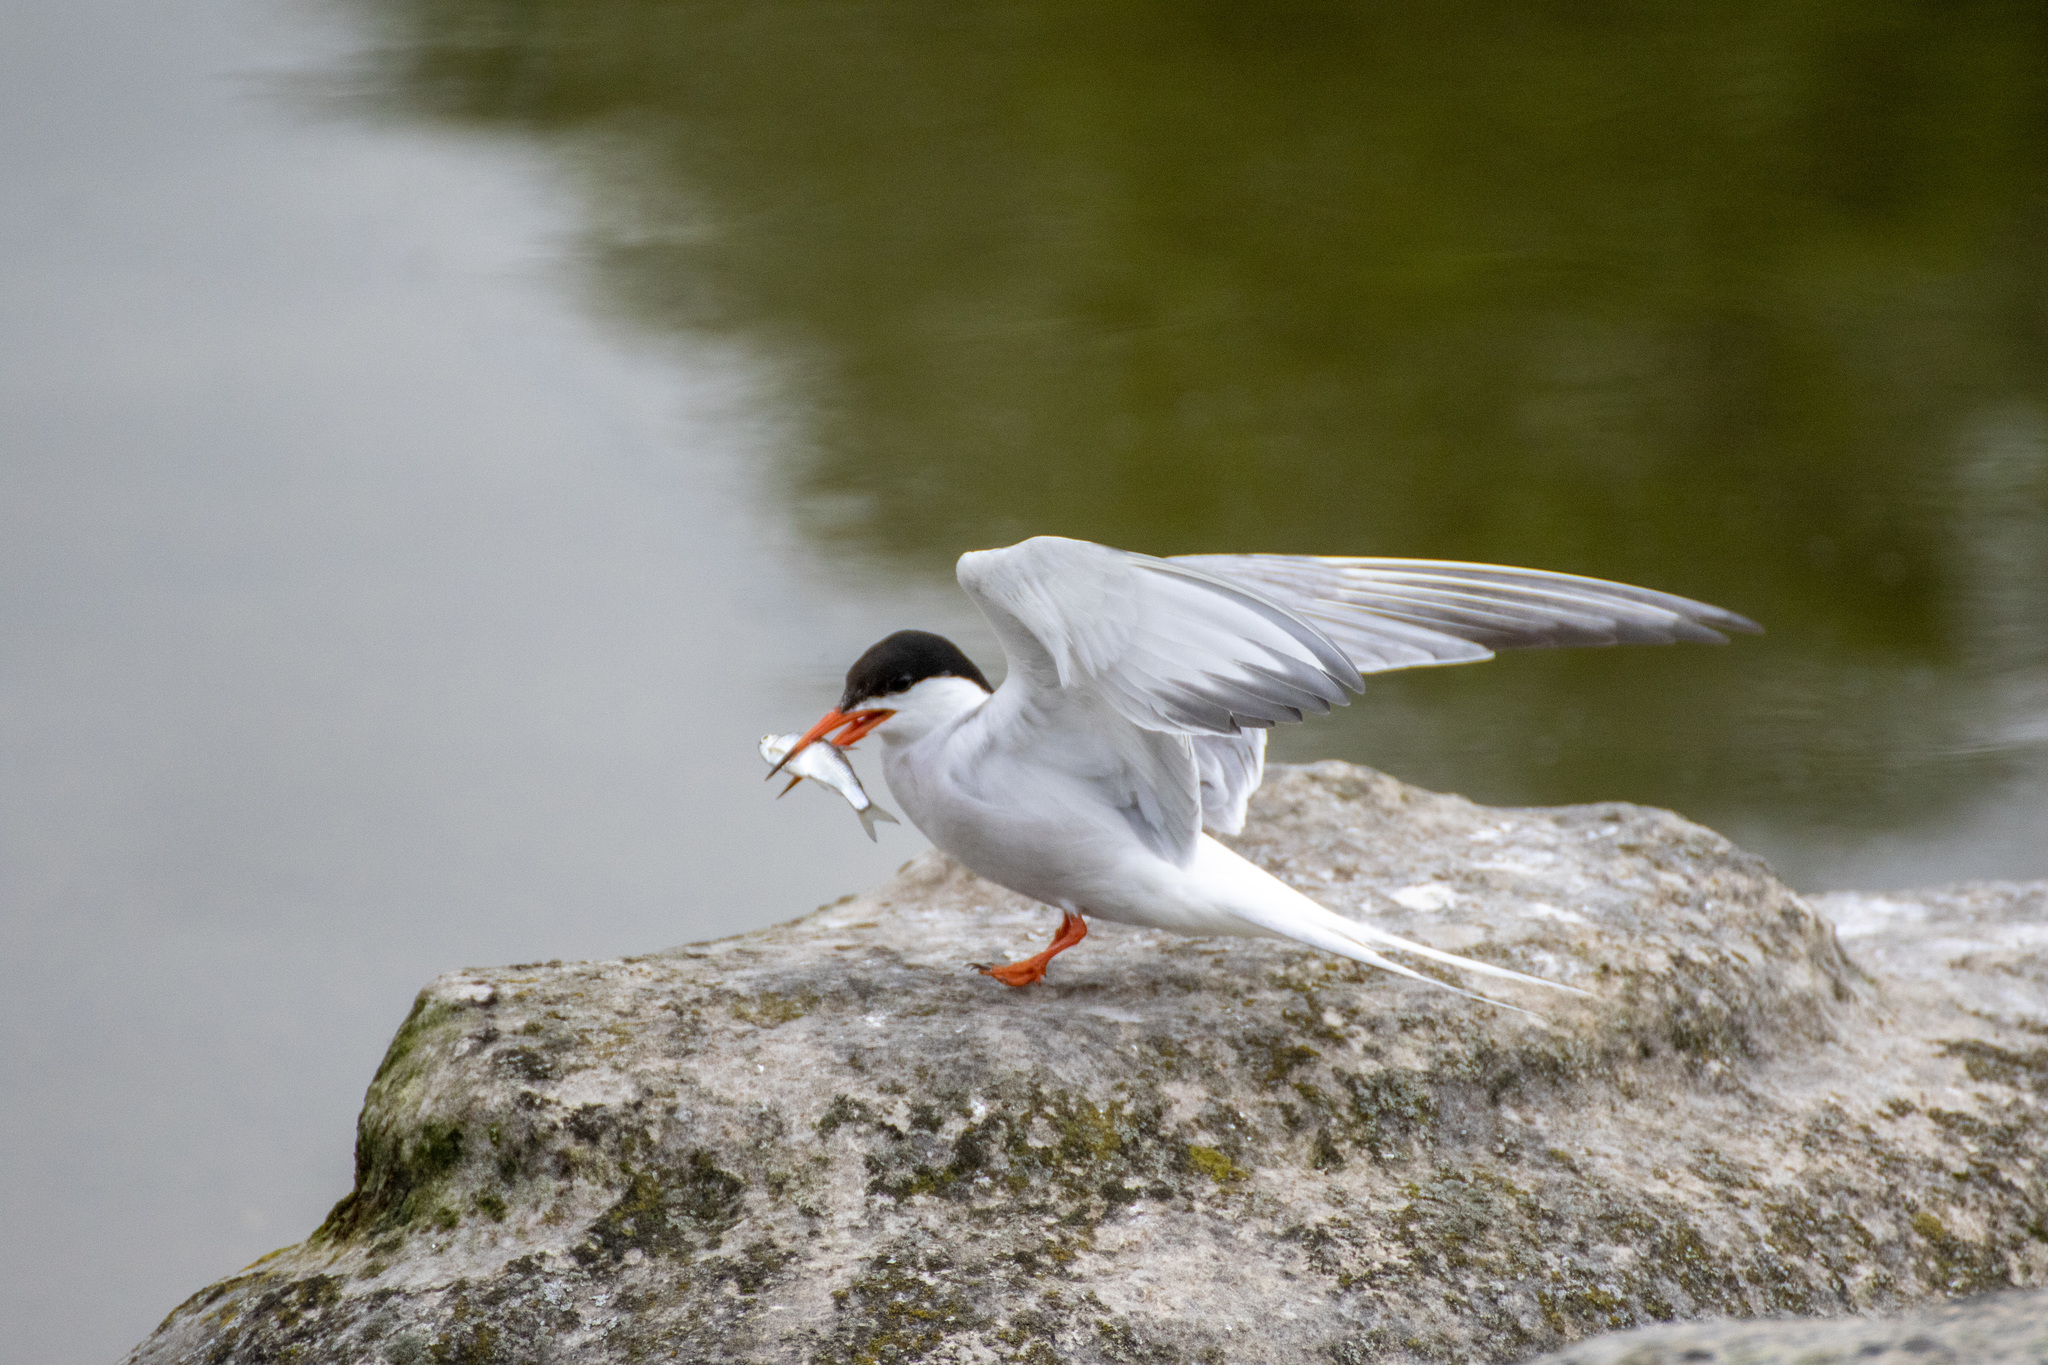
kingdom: Animalia
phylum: Chordata
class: Aves
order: Charadriiformes
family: Laridae
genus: Sterna
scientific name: Sterna hirundo
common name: Common tern
